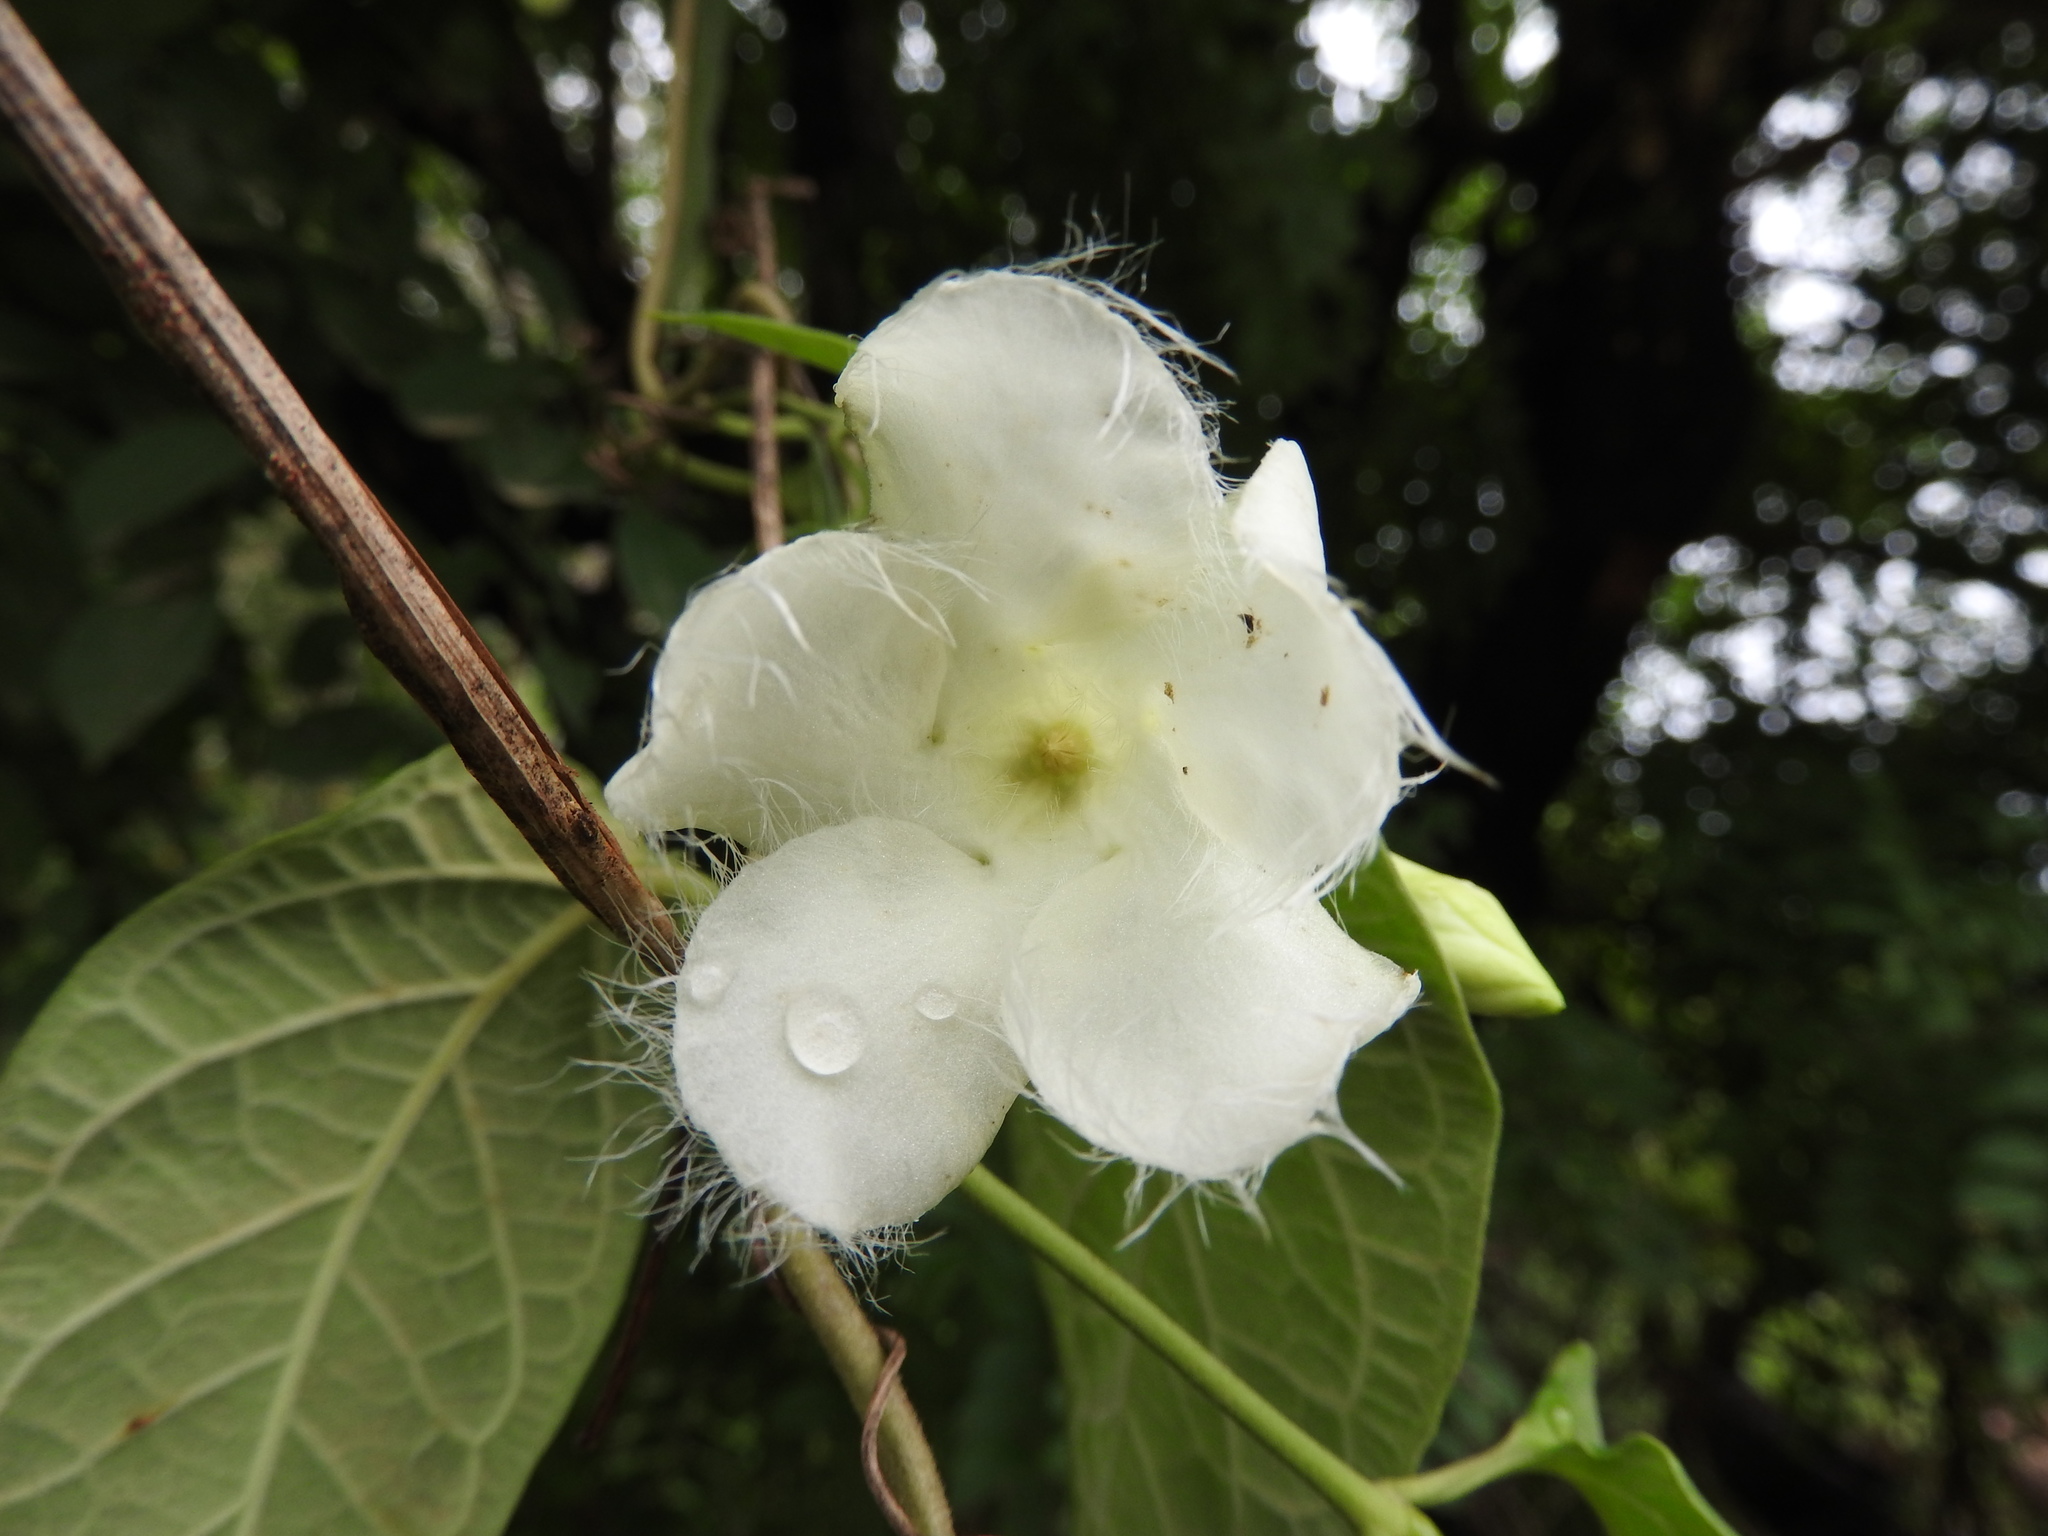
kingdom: Plantae
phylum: Tracheophyta
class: Magnoliopsida
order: Gentianales
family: Apocynaceae
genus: Echites
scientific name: Echites panduratus
